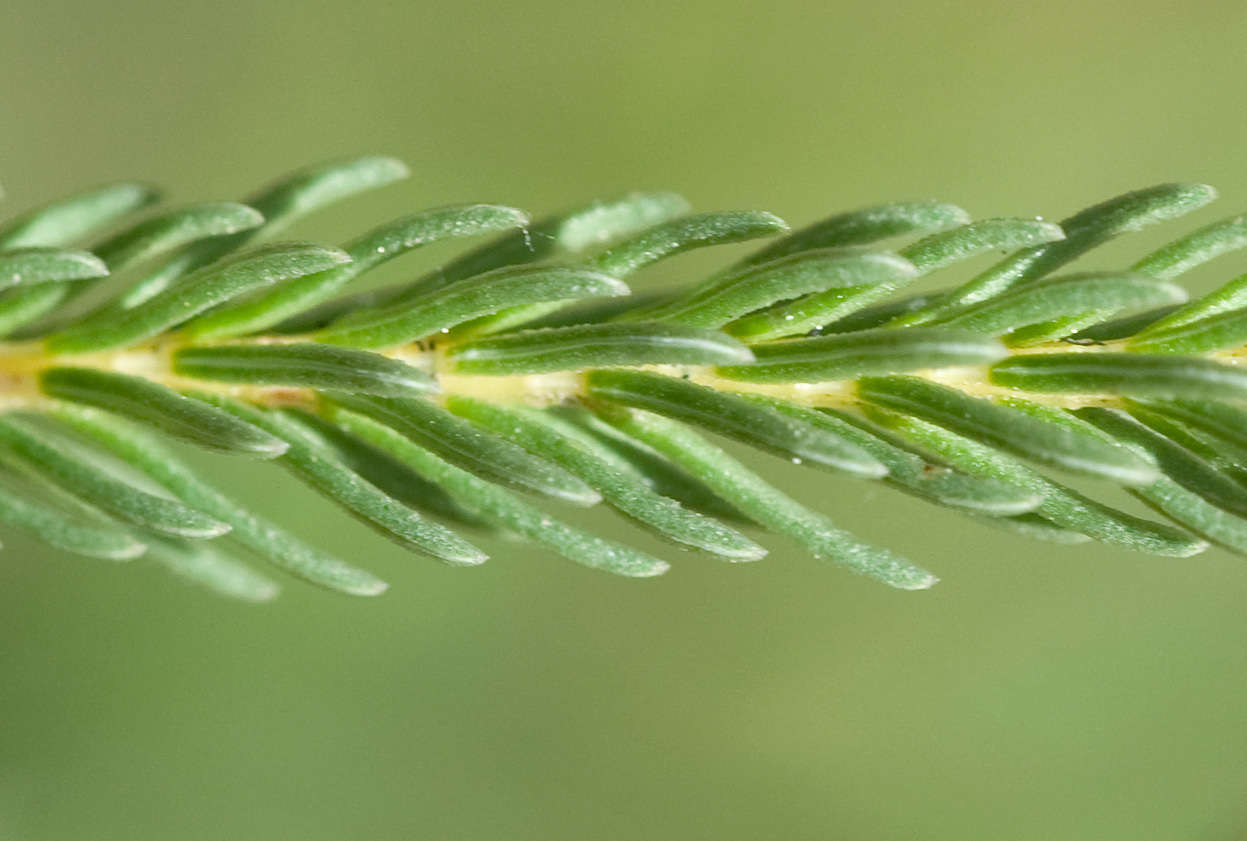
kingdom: Plantae
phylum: Tracheophyta
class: Magnoliopsida
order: Ericales
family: Ericaceae
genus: Erica
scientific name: Erica baccans
